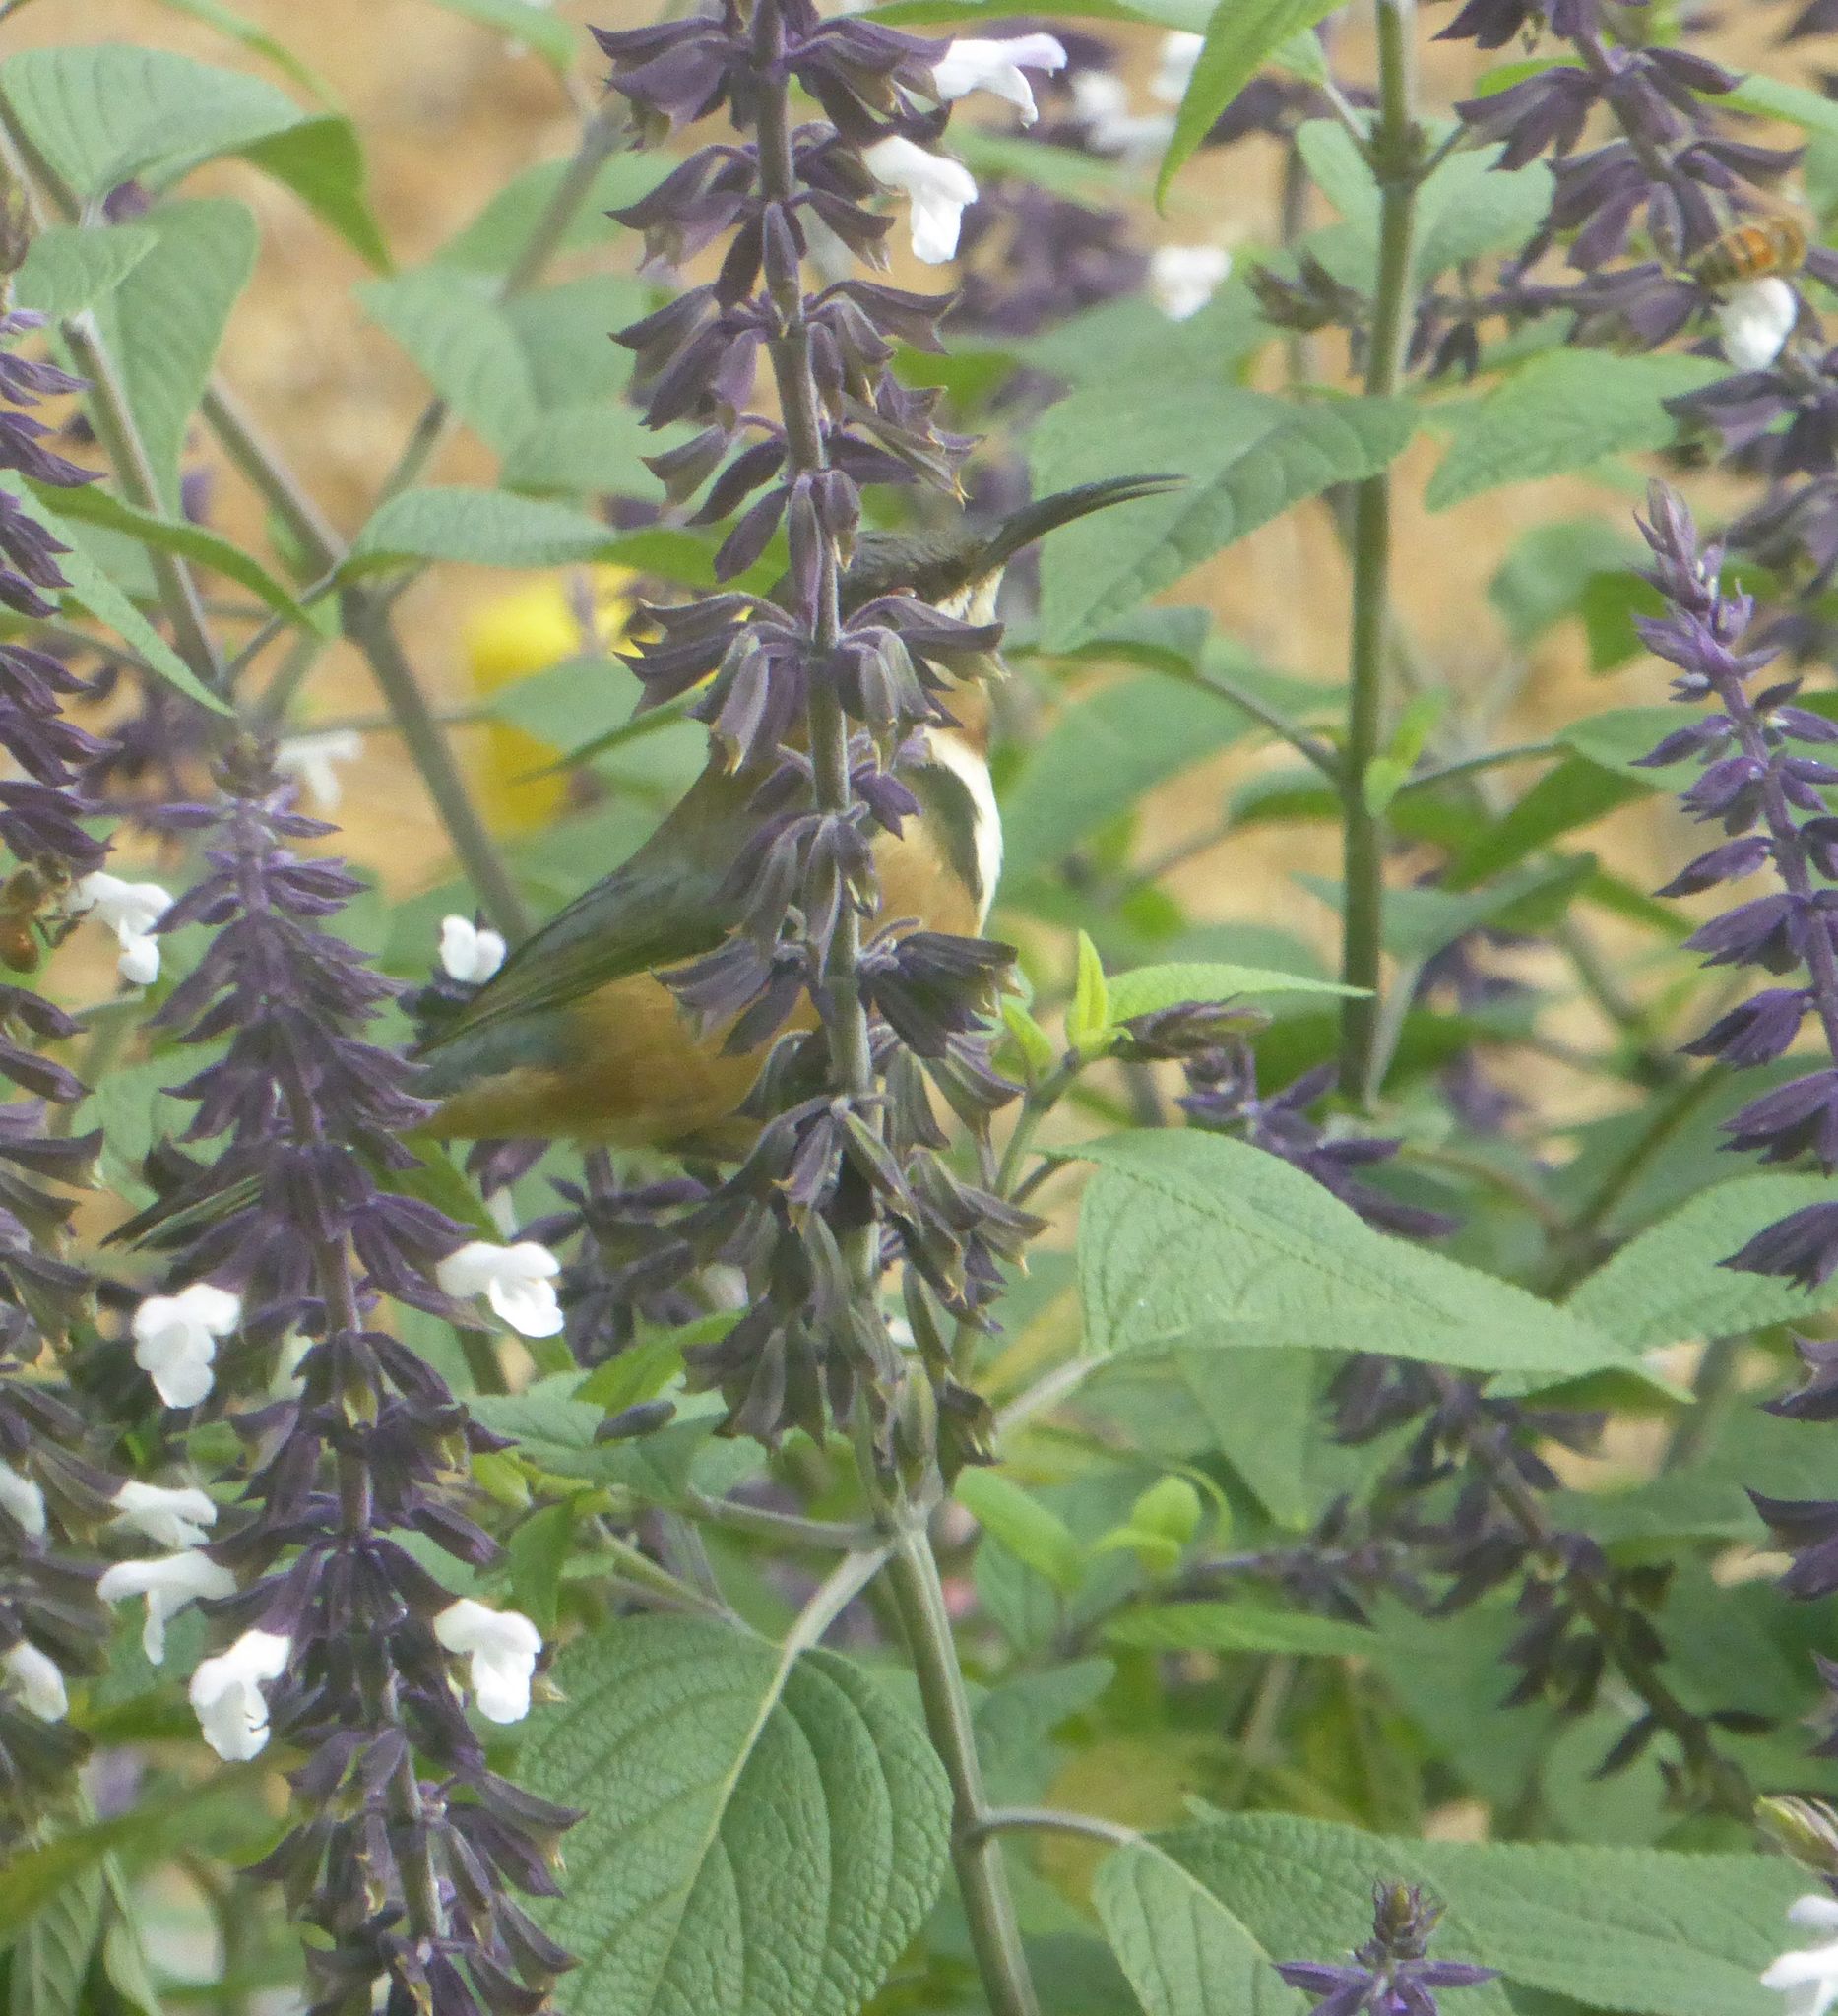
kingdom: Animalia
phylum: Chordata
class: Aves
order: Passeriformes
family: Meliphagidae
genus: Acanthorhynchus
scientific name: Acanthorhynchus tenuirostris
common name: Eastern spinebill
